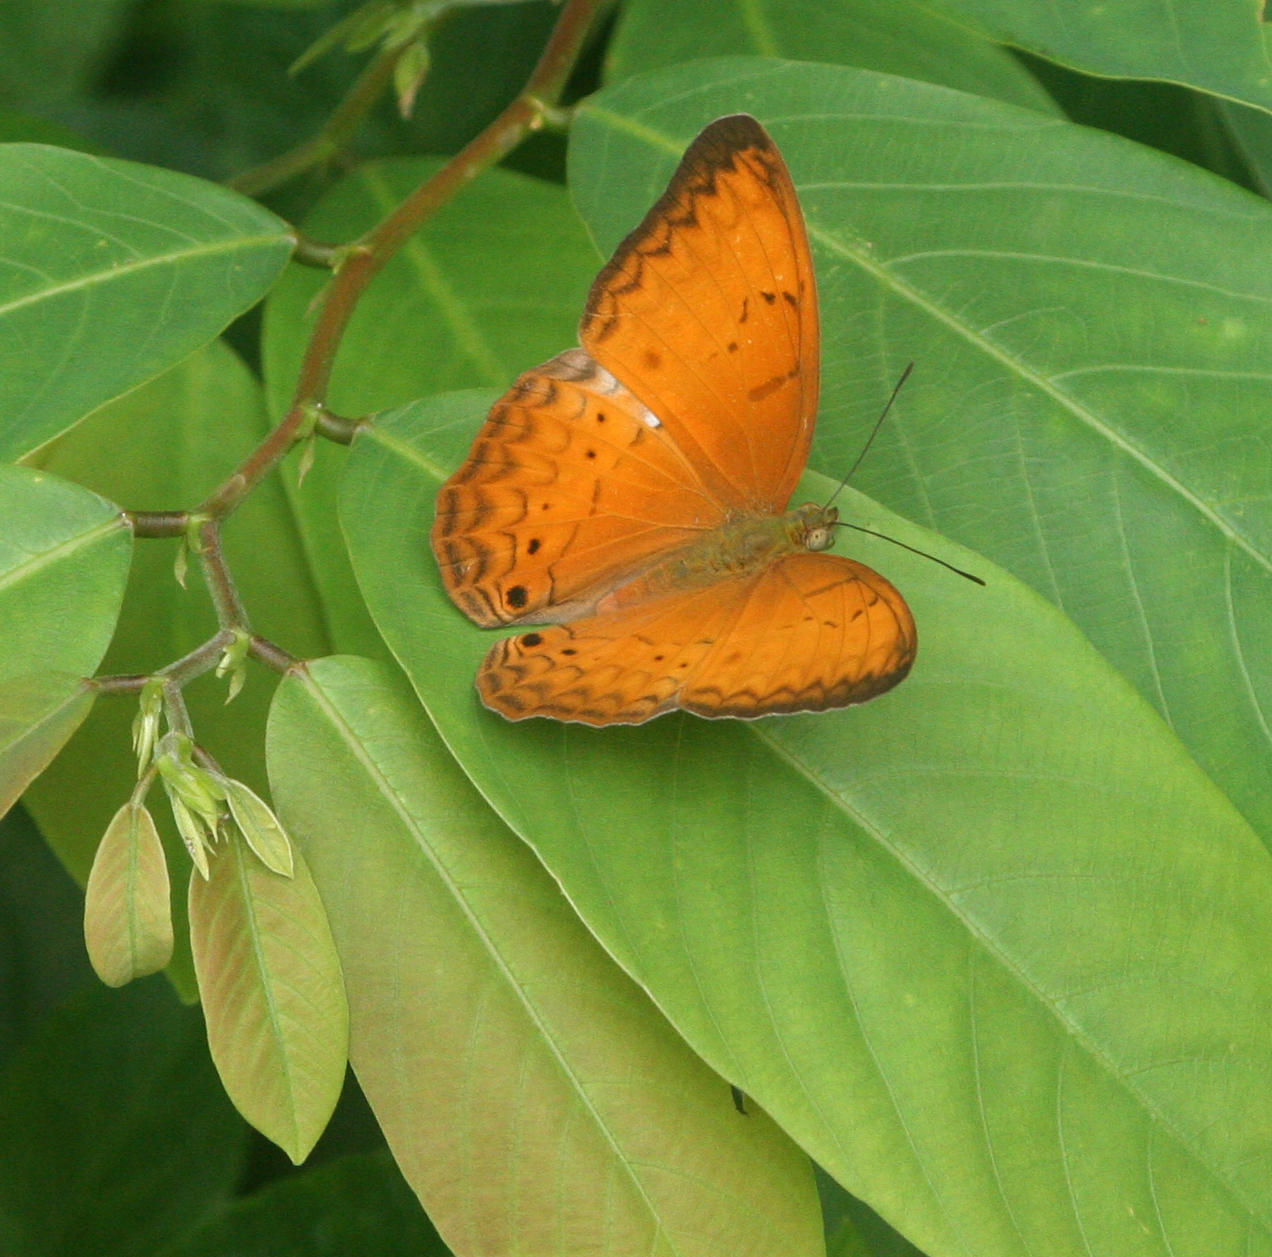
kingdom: Animalia
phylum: Arthropoda
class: Insecta
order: Lepidoptera
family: Nymphalidae
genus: Cirrochroa
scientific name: Cirrochroa tyche
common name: Common yeoman
